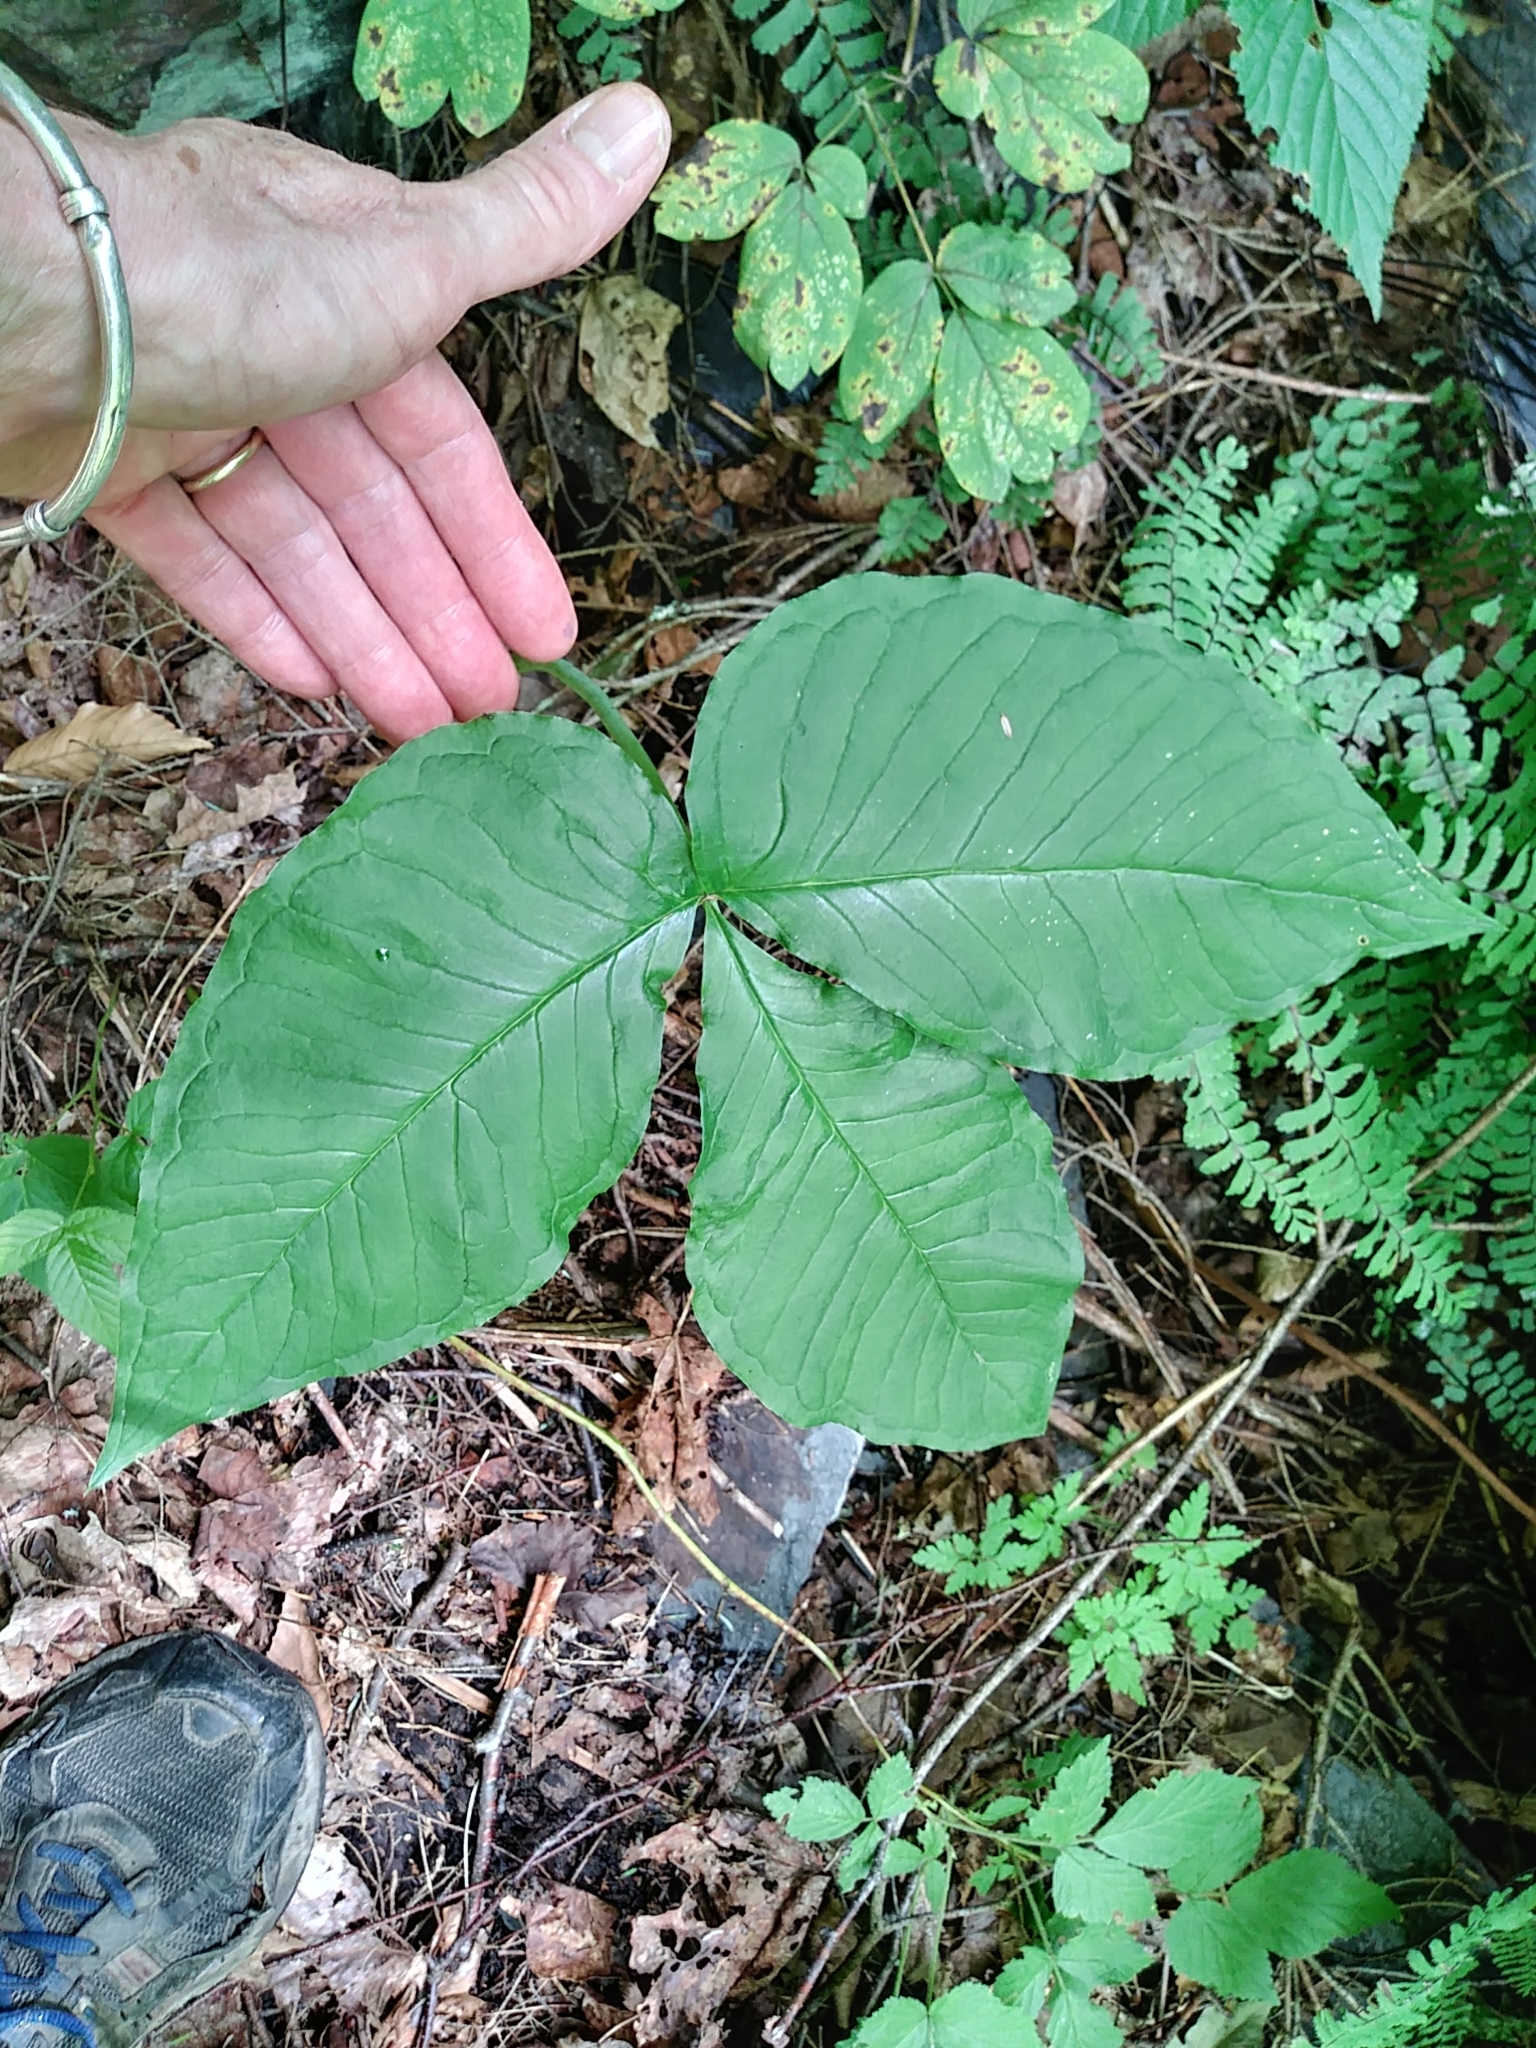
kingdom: Plantae
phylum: Tracheophyta
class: Liliopsida
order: Alismatales
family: Araceae
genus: Arisaema
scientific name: Arisaema triphyllum
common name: Jack-in-the-pulpit
